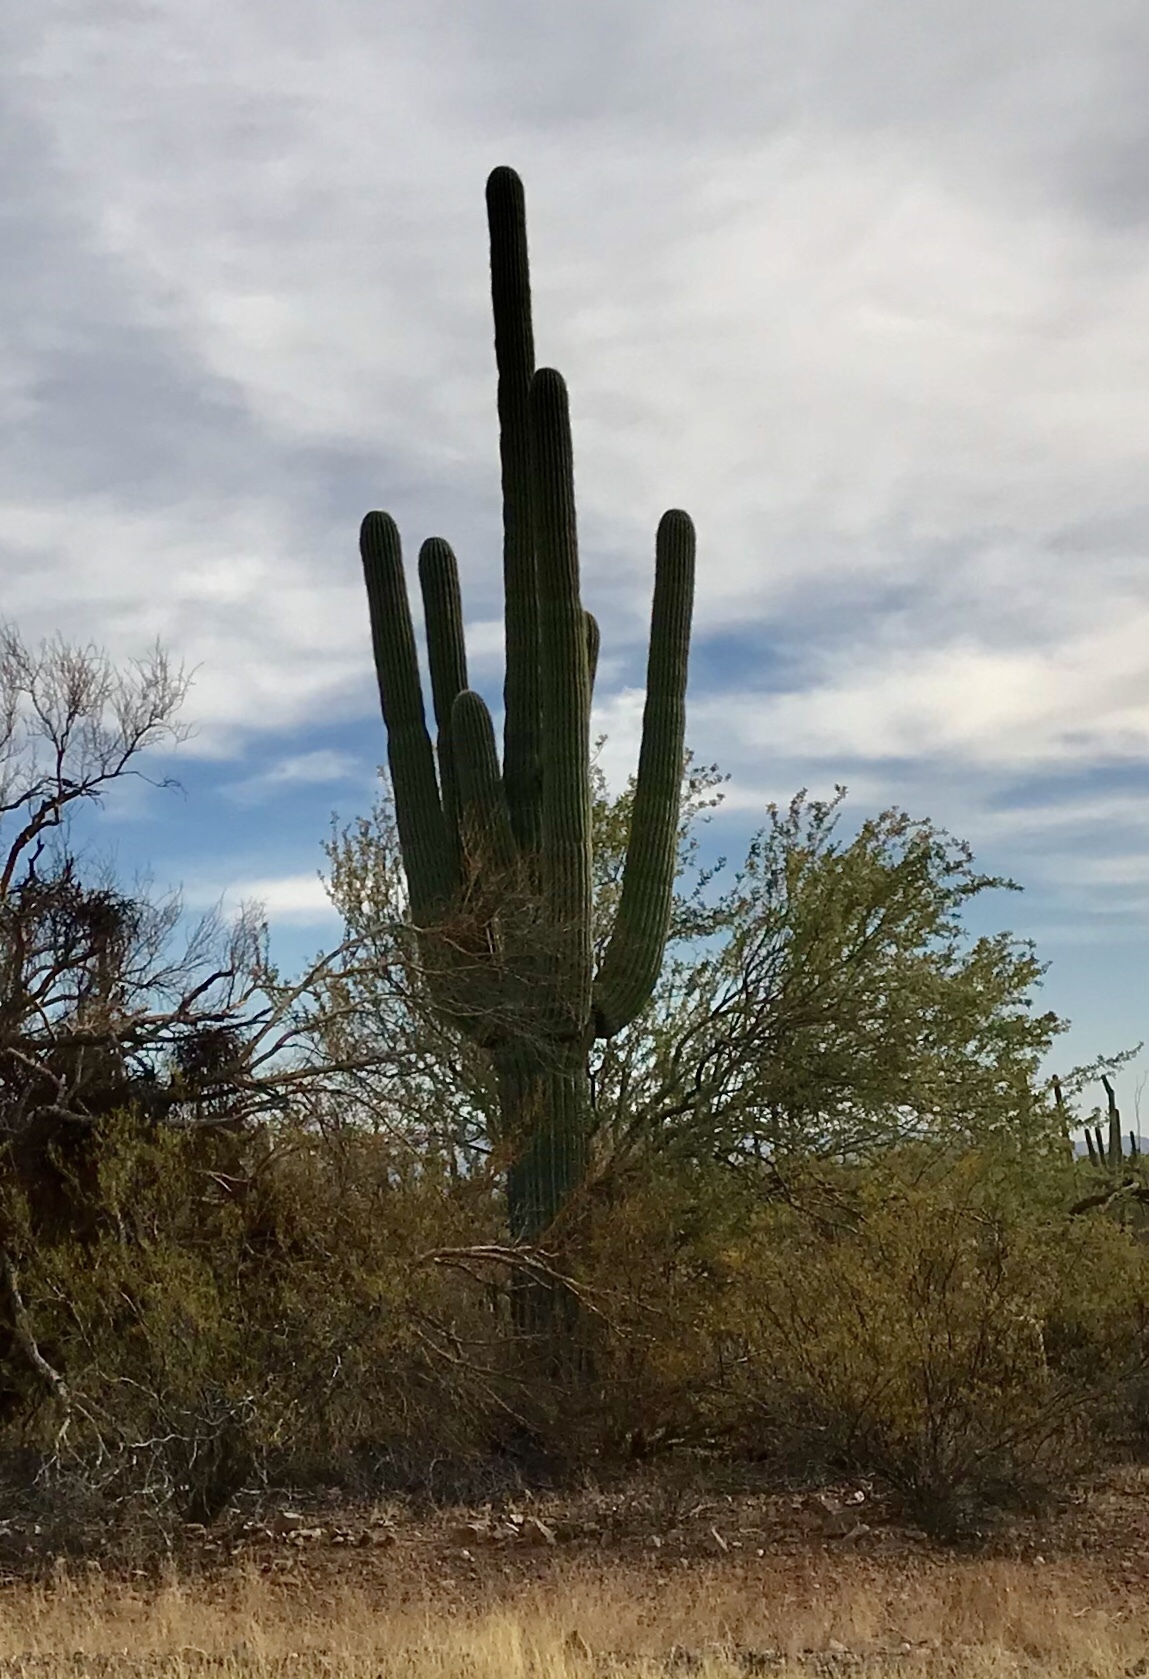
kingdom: Plantae
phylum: Tracheophyta
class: Magnoliopsida
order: Caryophyllales
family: Cactaceae
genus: Carnegiea
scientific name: Carnegiea gigantea
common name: Saguaro
